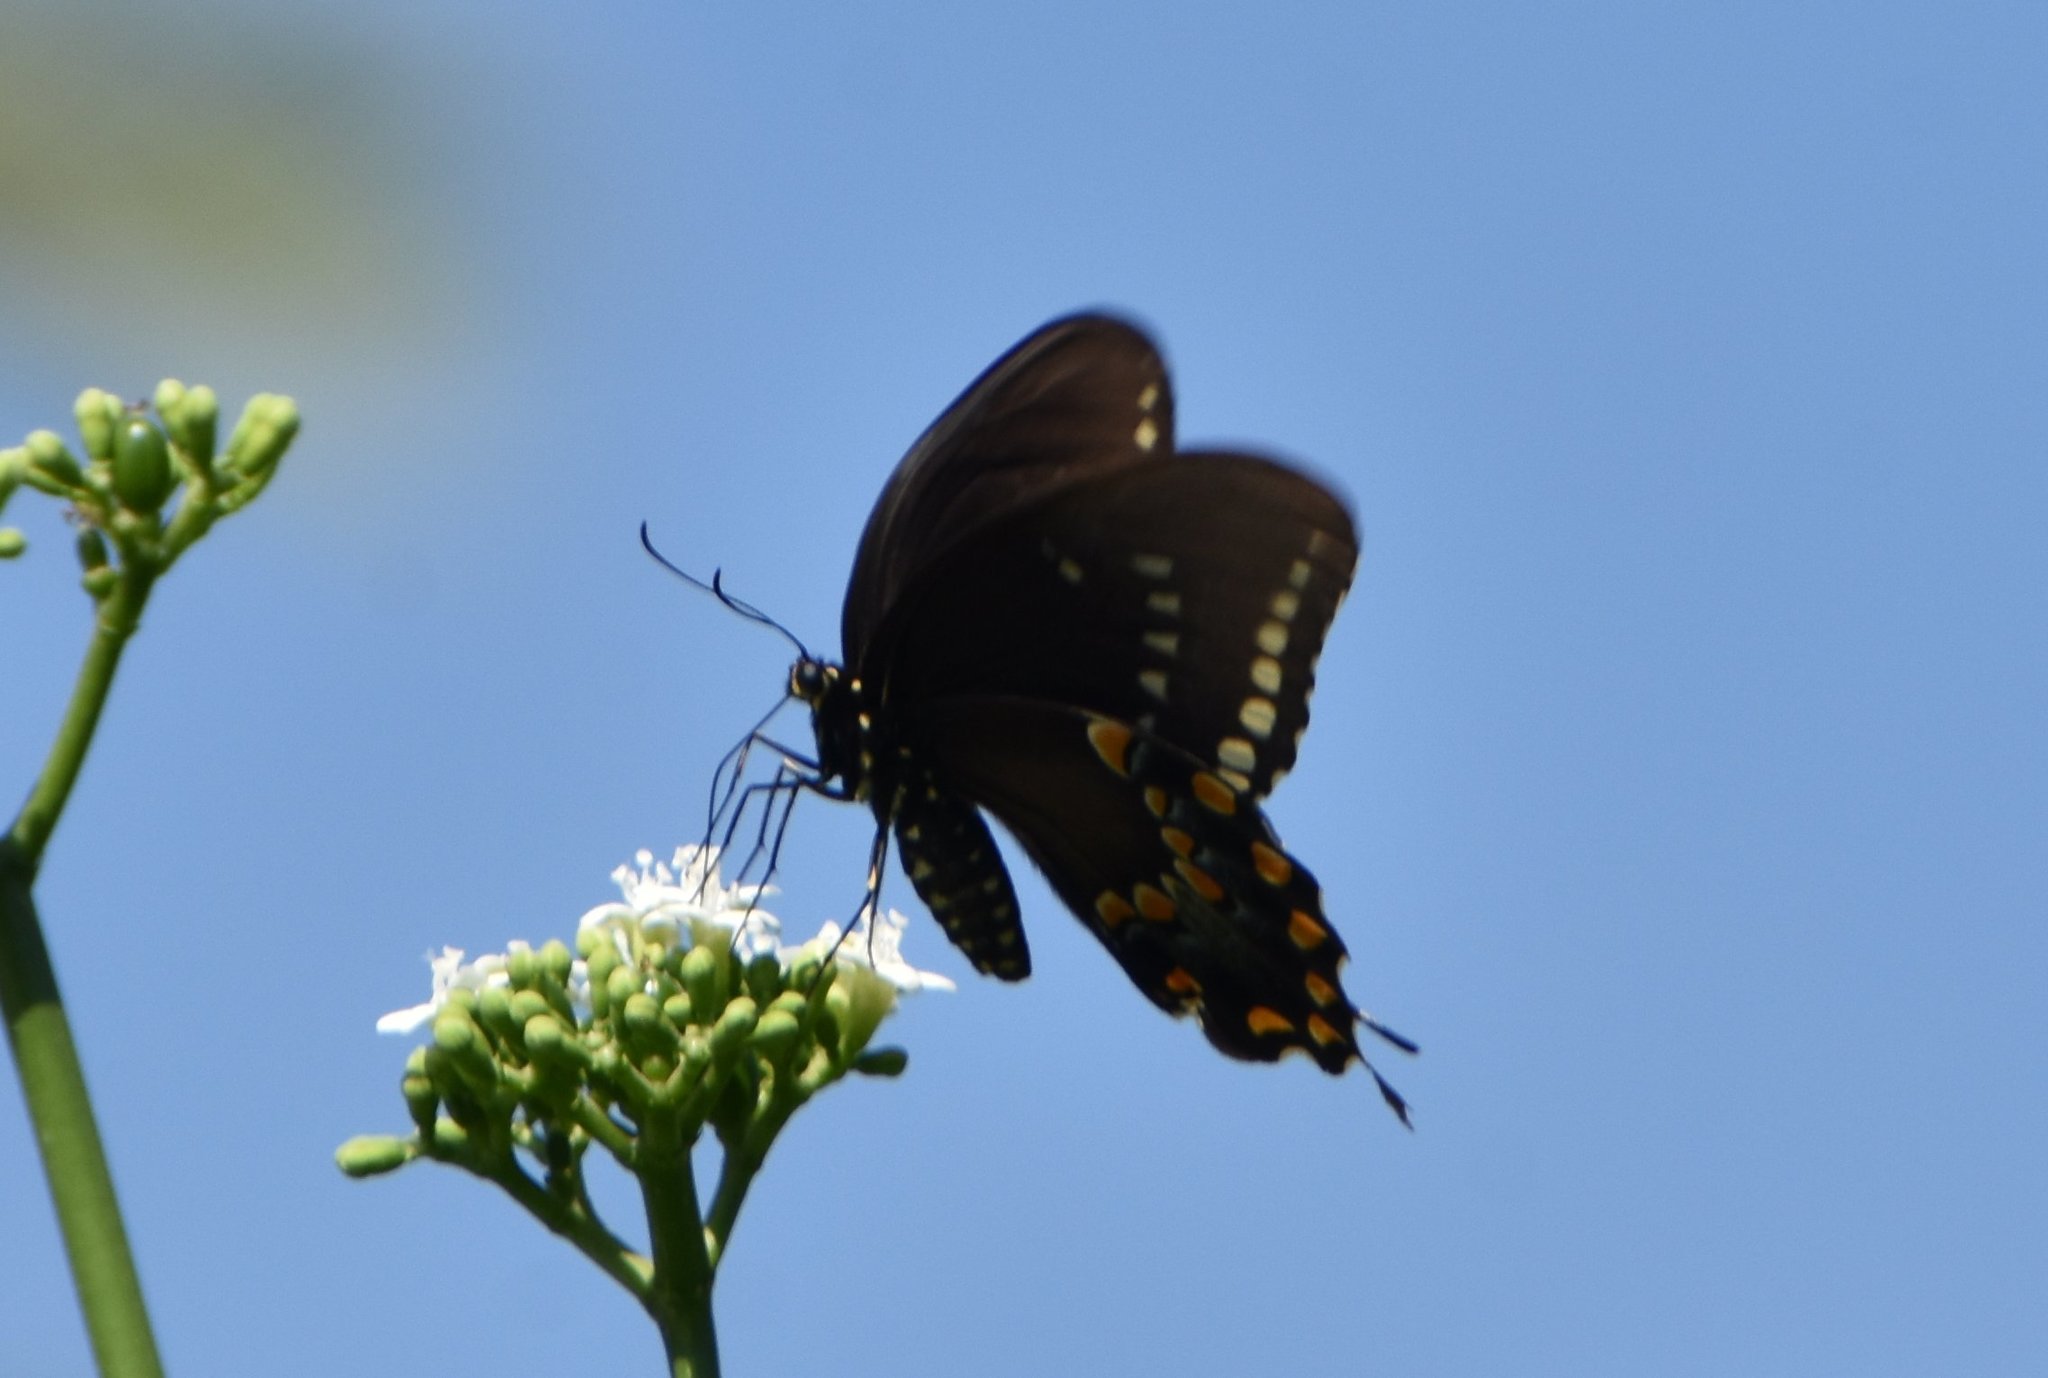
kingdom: Animalia
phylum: Arthropoda
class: Insecta
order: Lepidoptera
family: Papilionidae
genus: Papilio
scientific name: Papilio troilus
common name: Spicebush swallowtail
